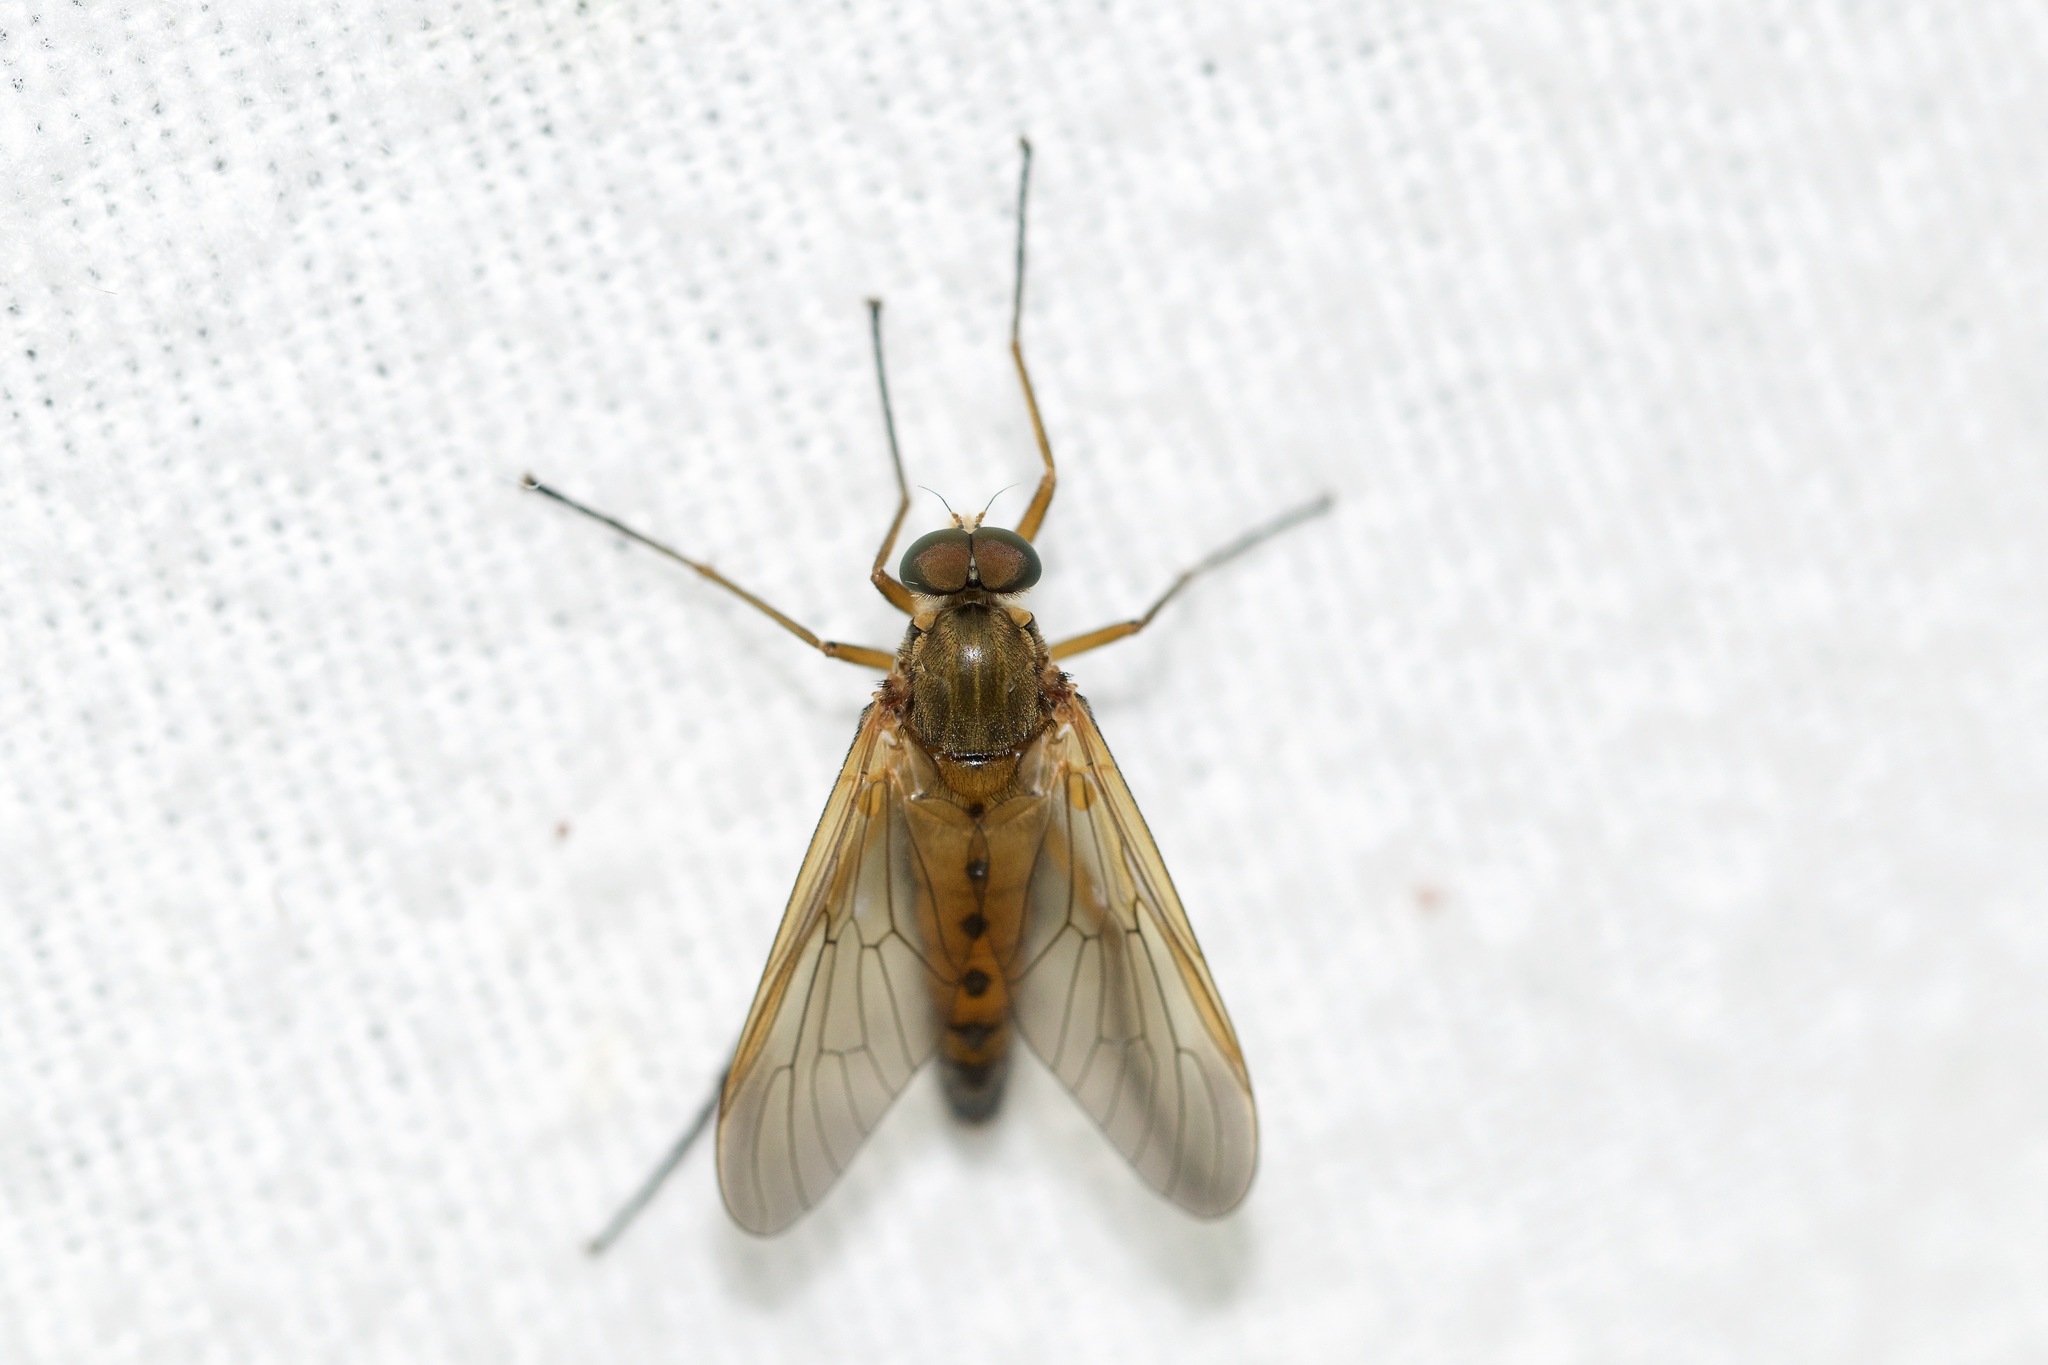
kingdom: Animalia
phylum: Arthropoda
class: Insecta
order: Diptera
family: Rhagionidae
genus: Rhagio
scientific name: Rhagio tringaria
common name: Marsh snipefly
